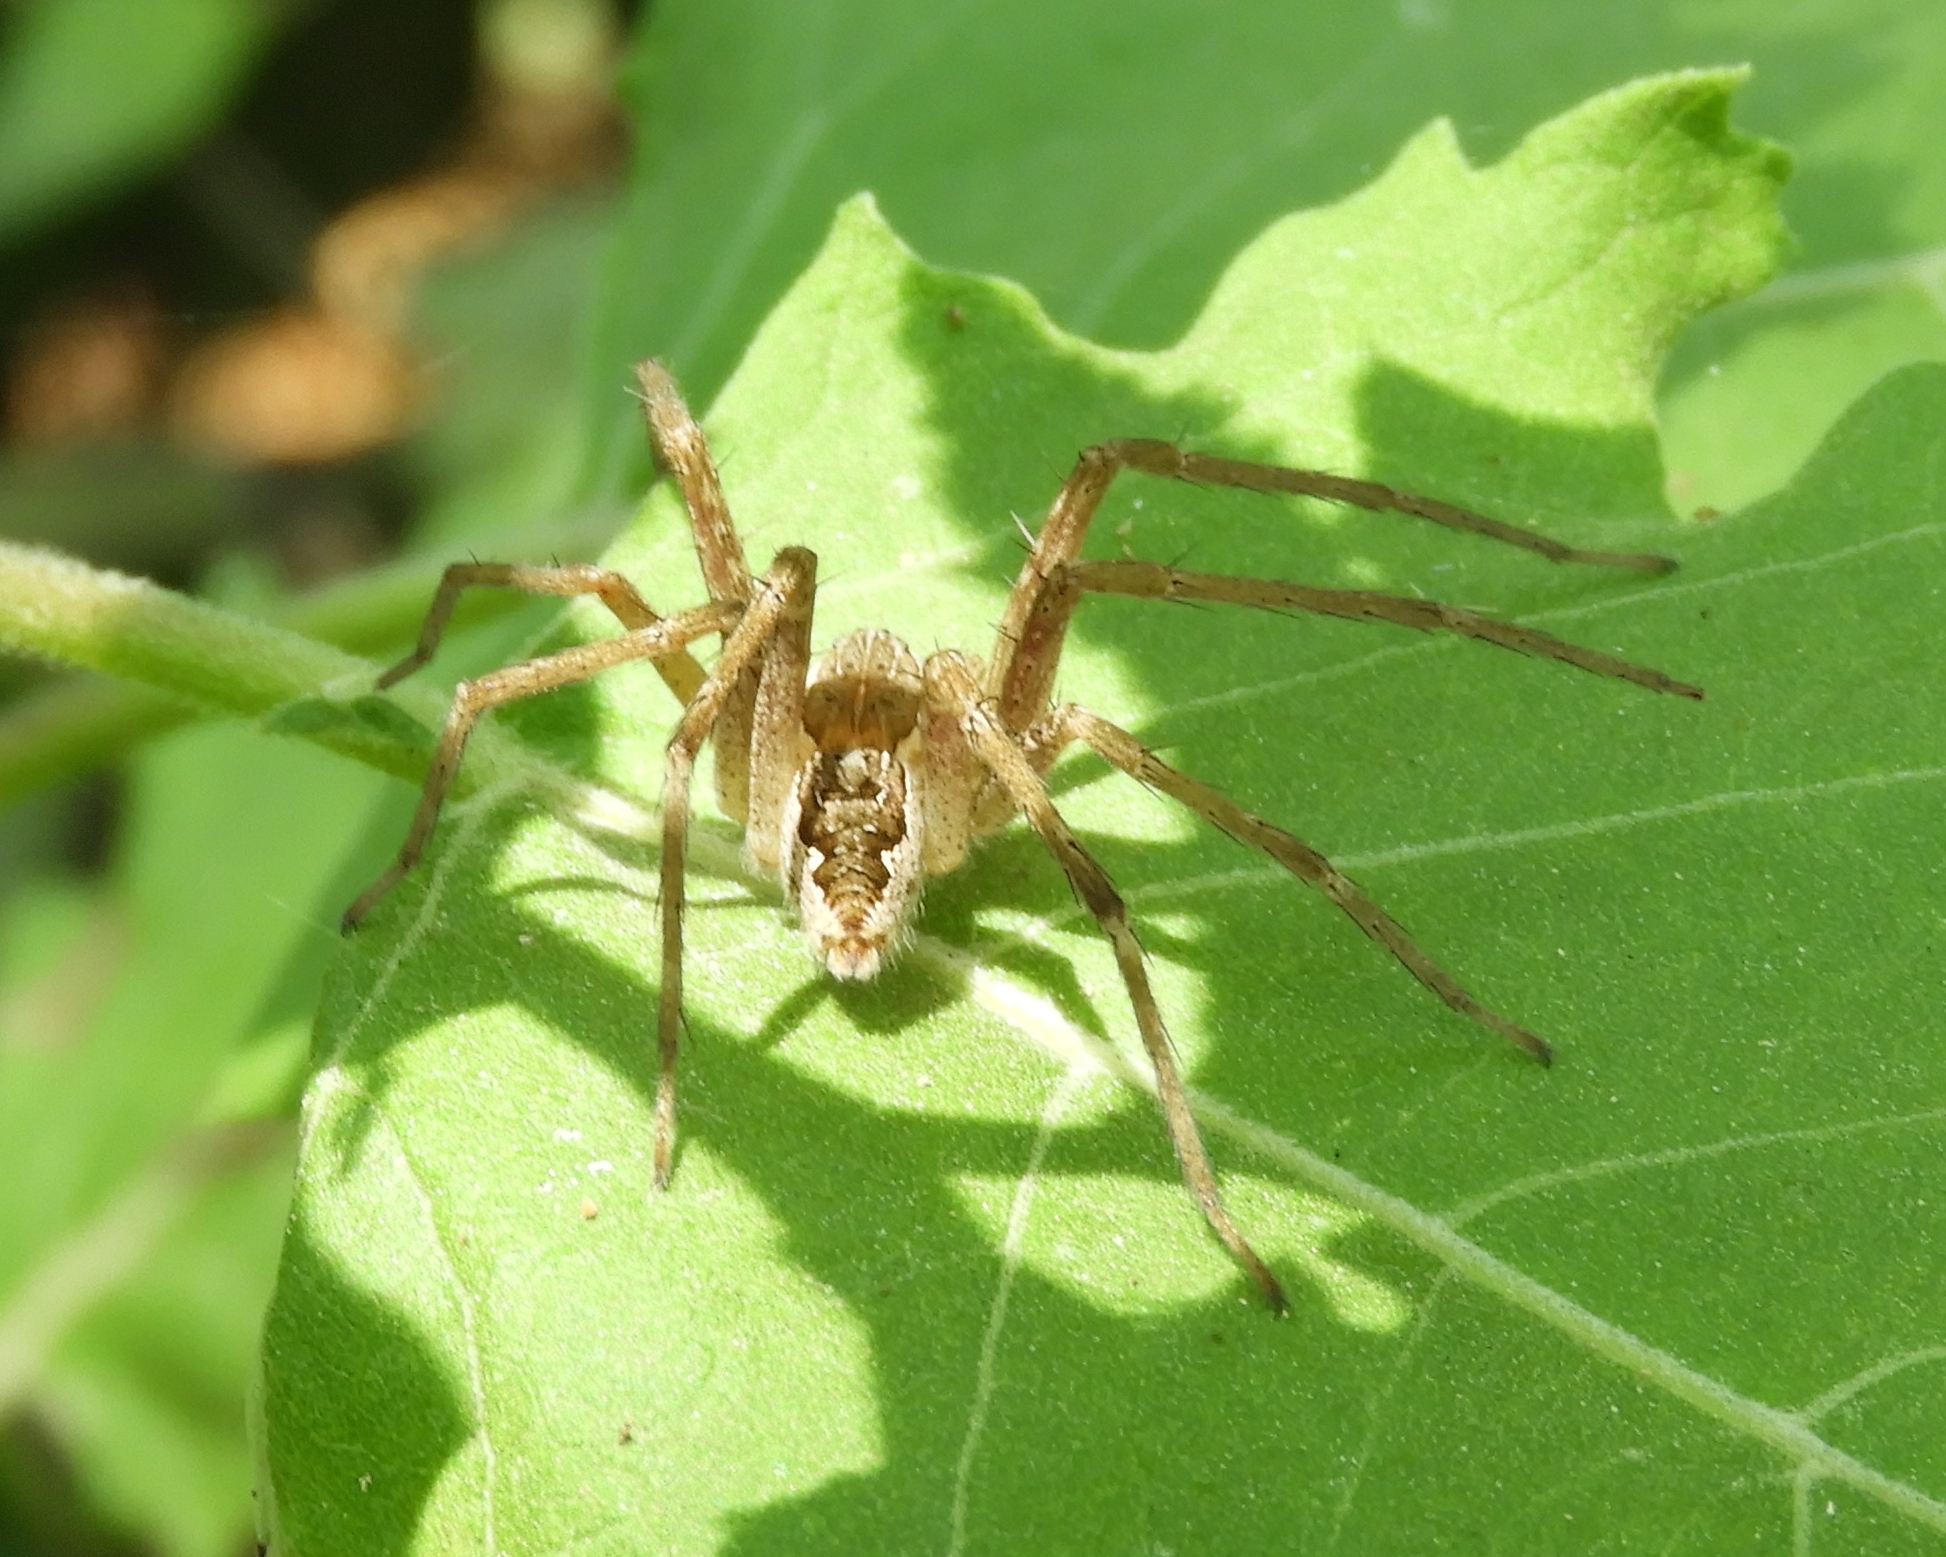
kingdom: Animalia
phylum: Arthropoda
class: Arachnida
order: Araneae
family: Pisauridae
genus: Tinus
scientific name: Tinus
